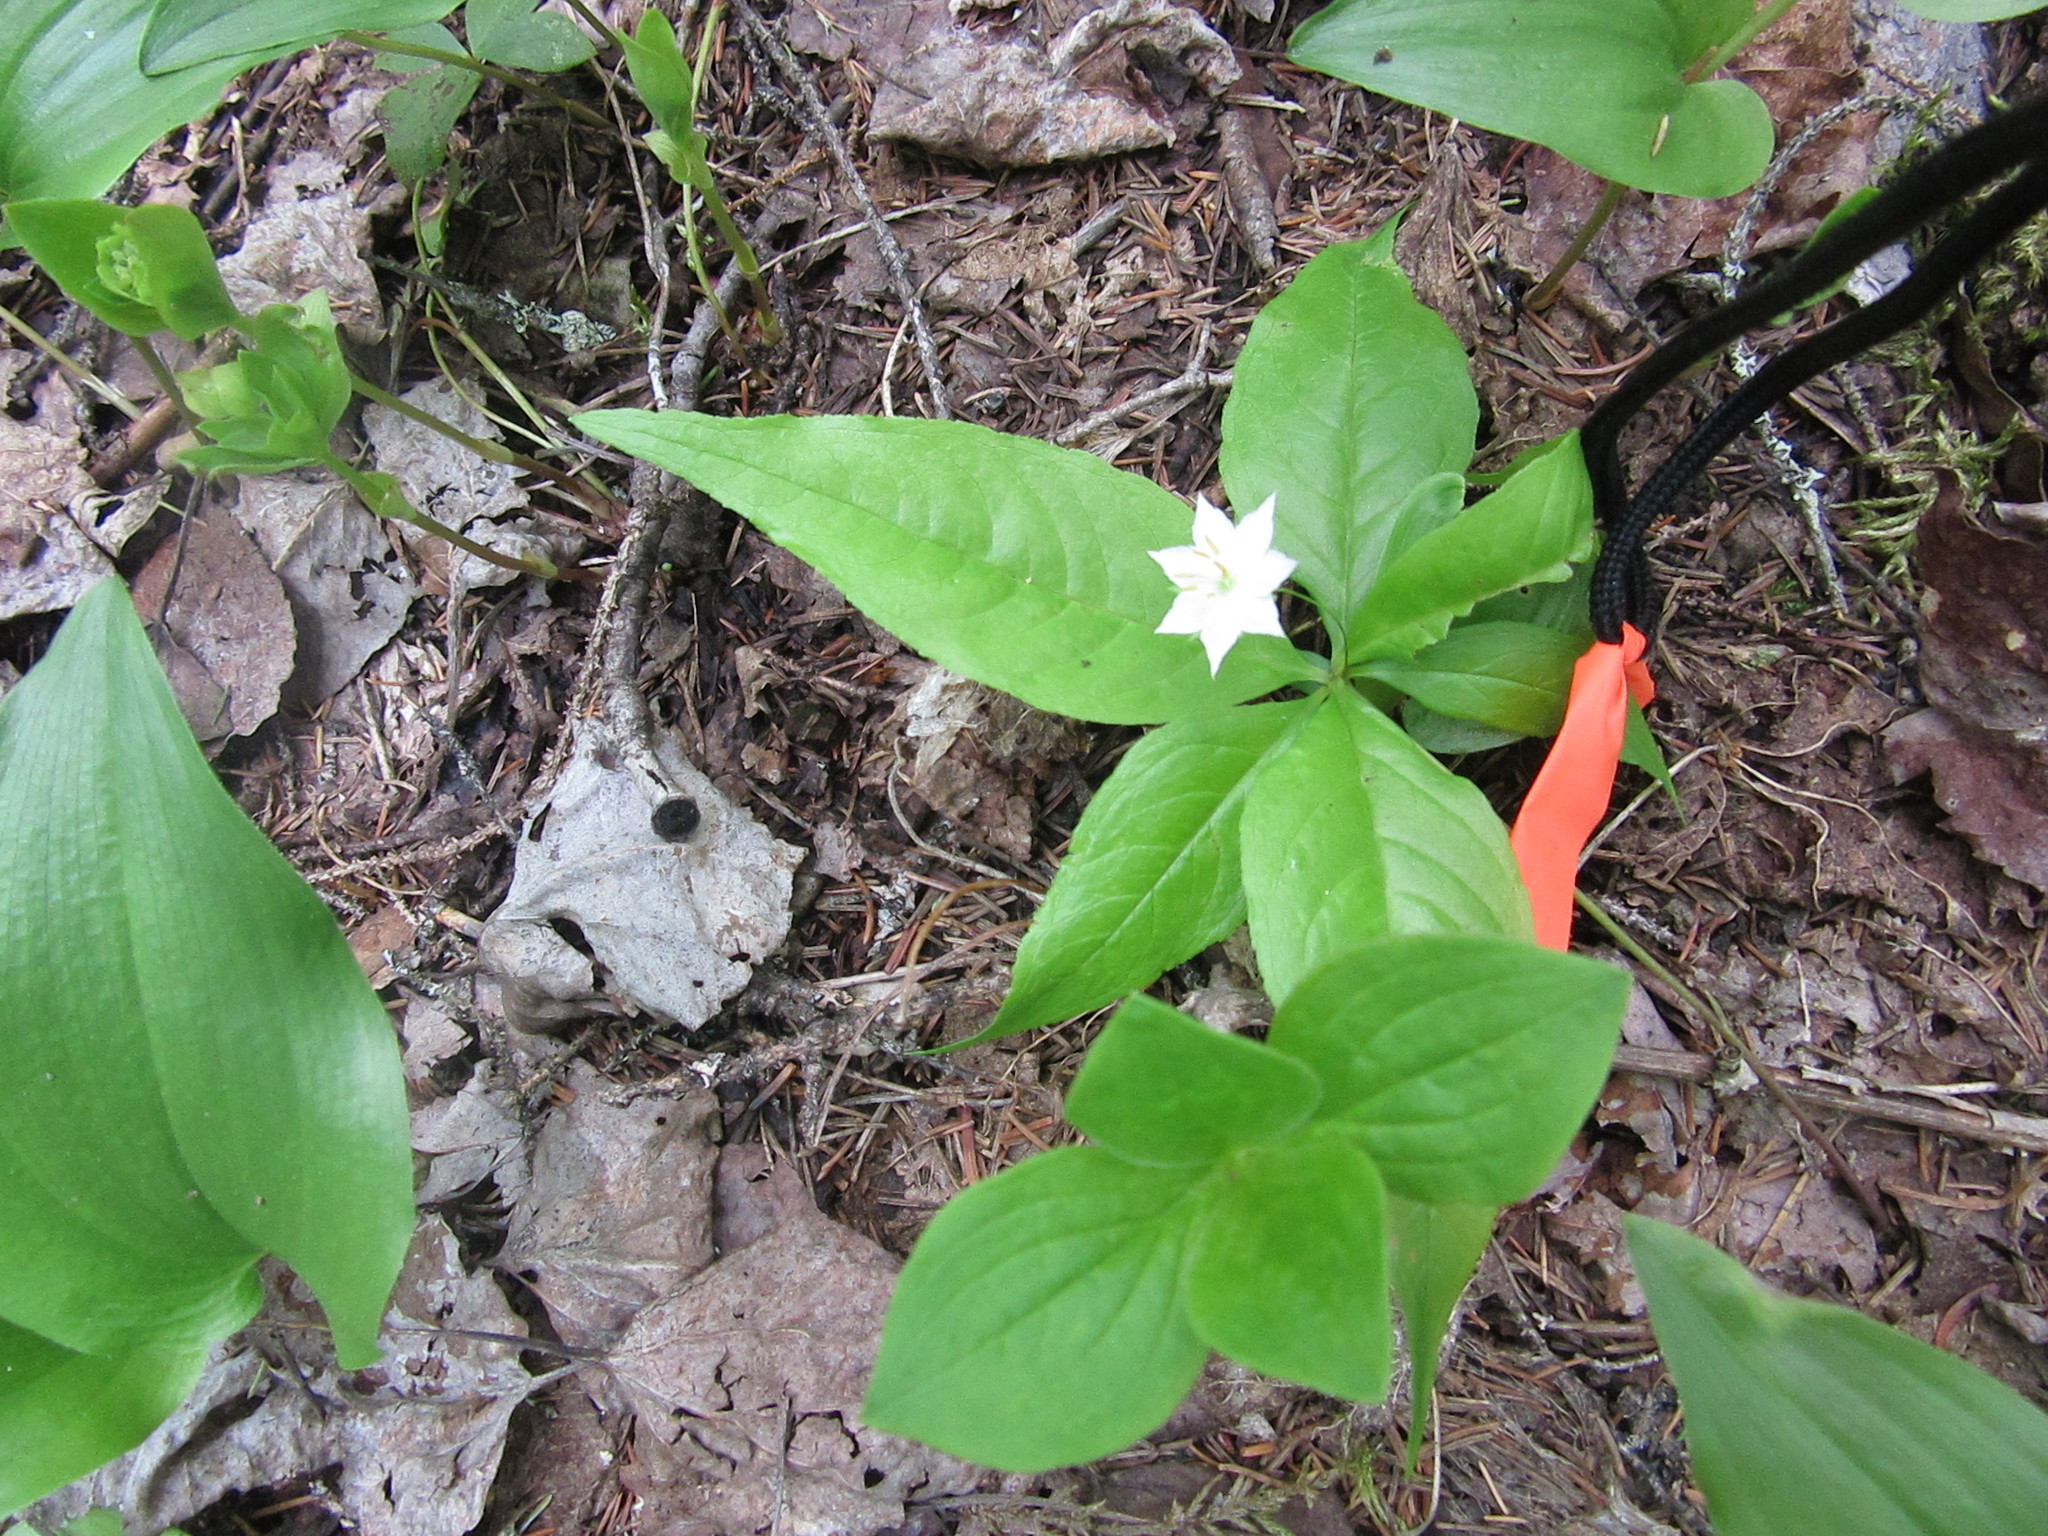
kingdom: Plantae
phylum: Tracheophyta
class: Magnoliopsida
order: Ericales
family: Primulaceae
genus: Lysimachia
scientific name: Lysimachia borealis
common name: American starflower
